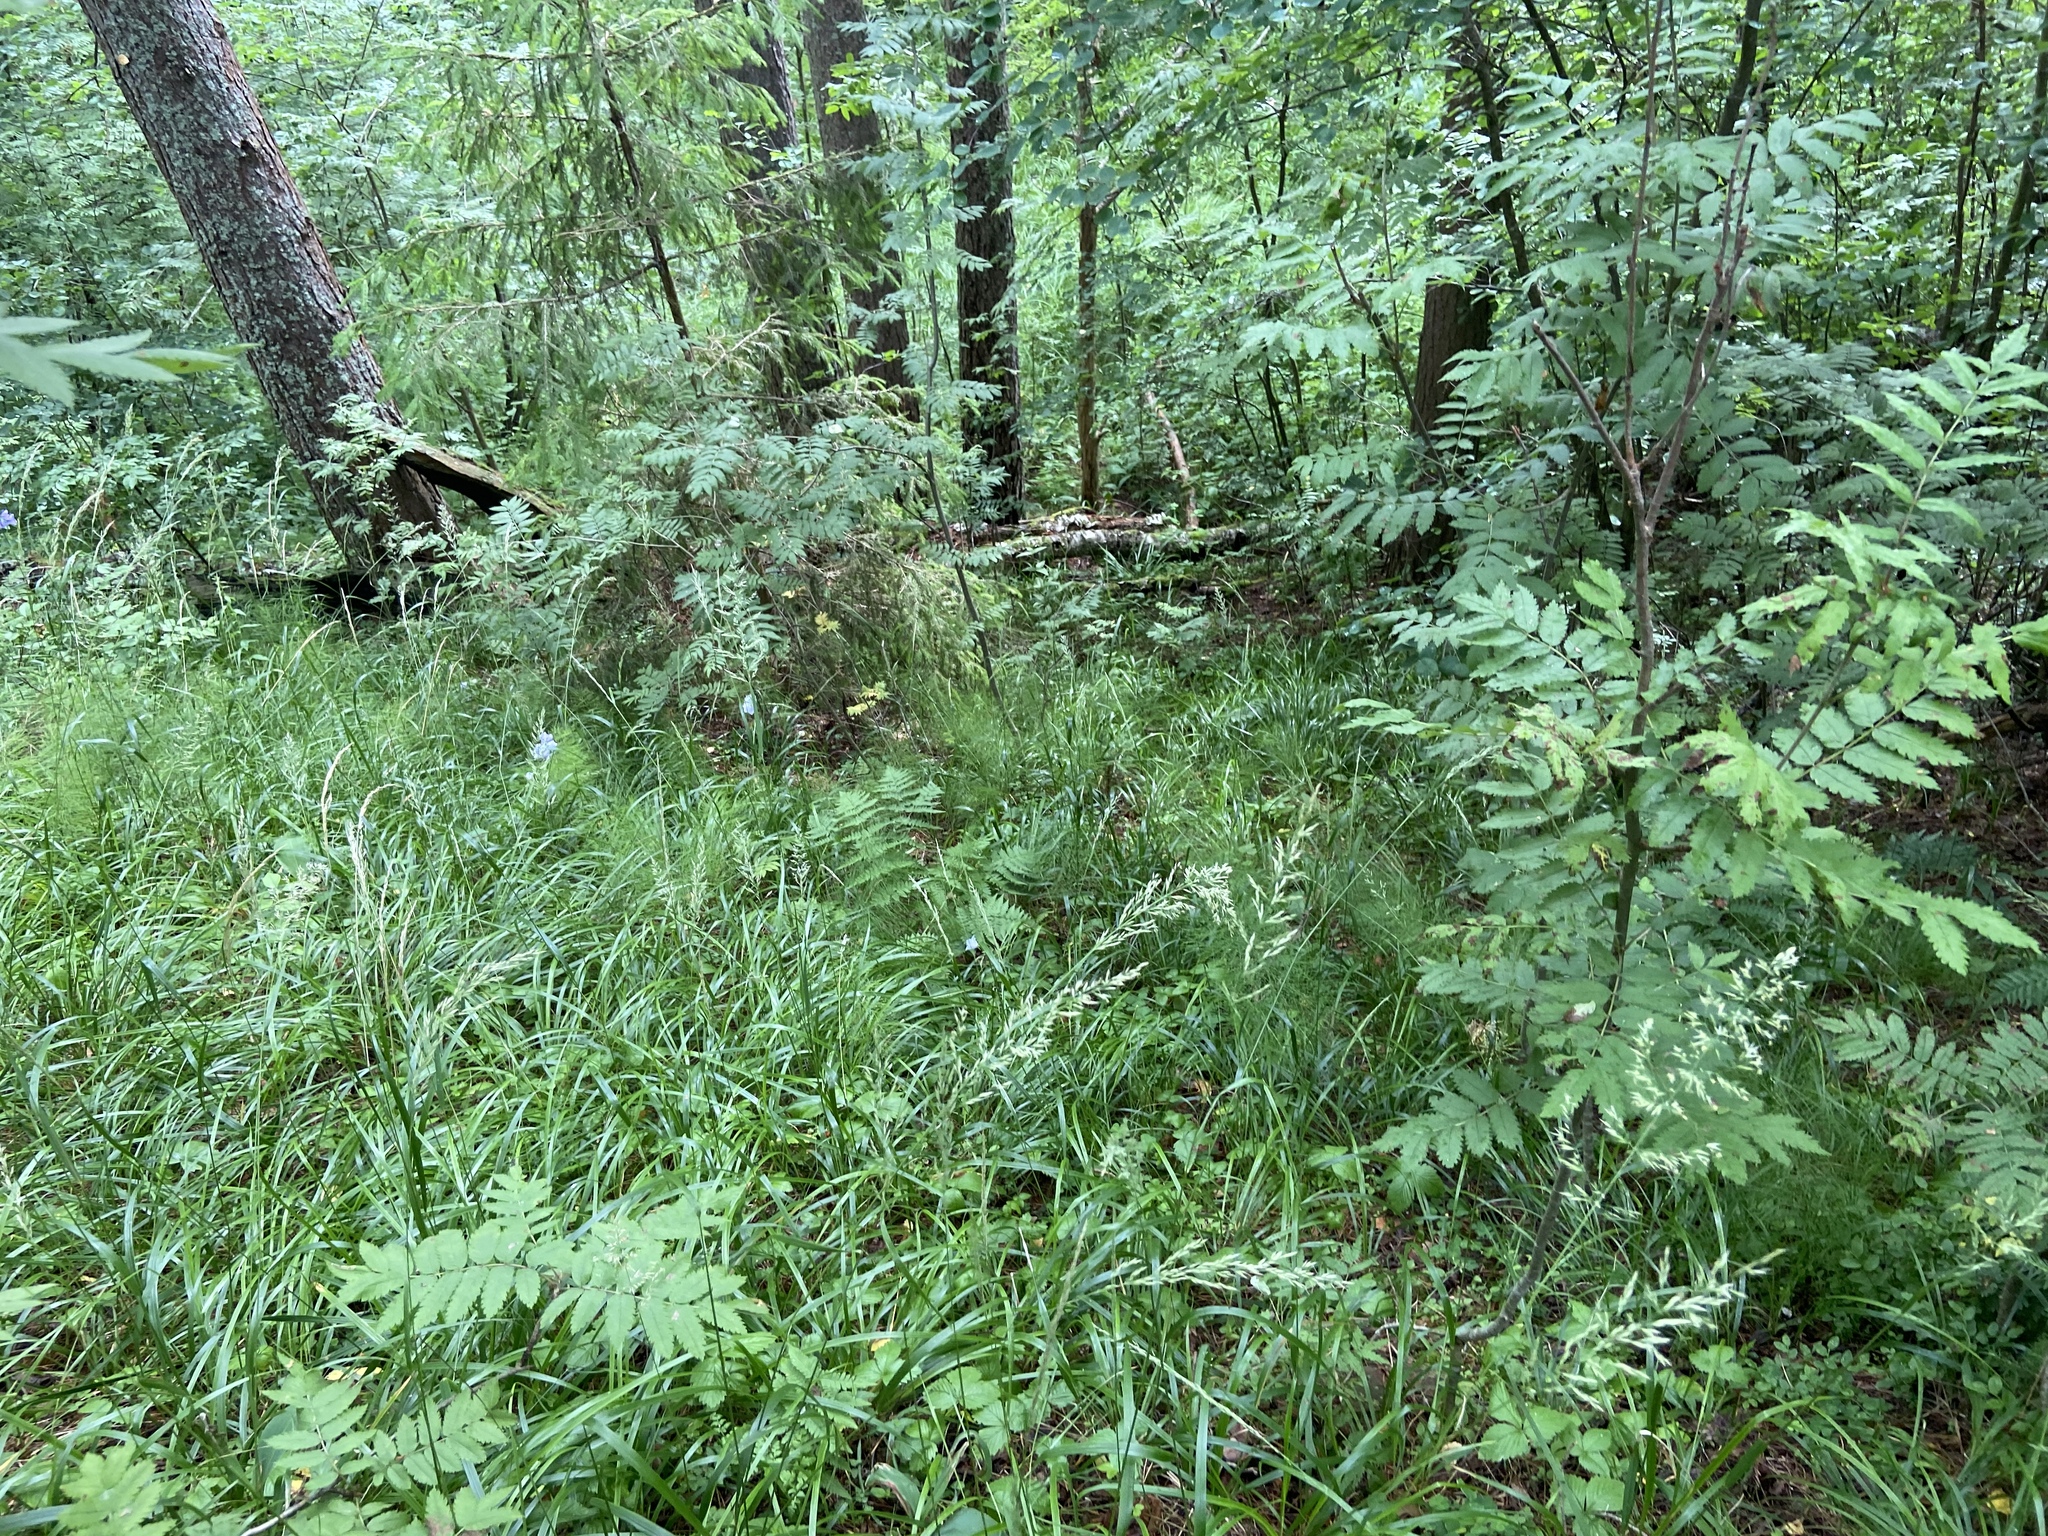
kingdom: Plantae
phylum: Tracheophyta
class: Magnoliopsida
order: Rosales
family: Rosaceae
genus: Sorbus
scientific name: Sorbus aucuparia
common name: Rowan
